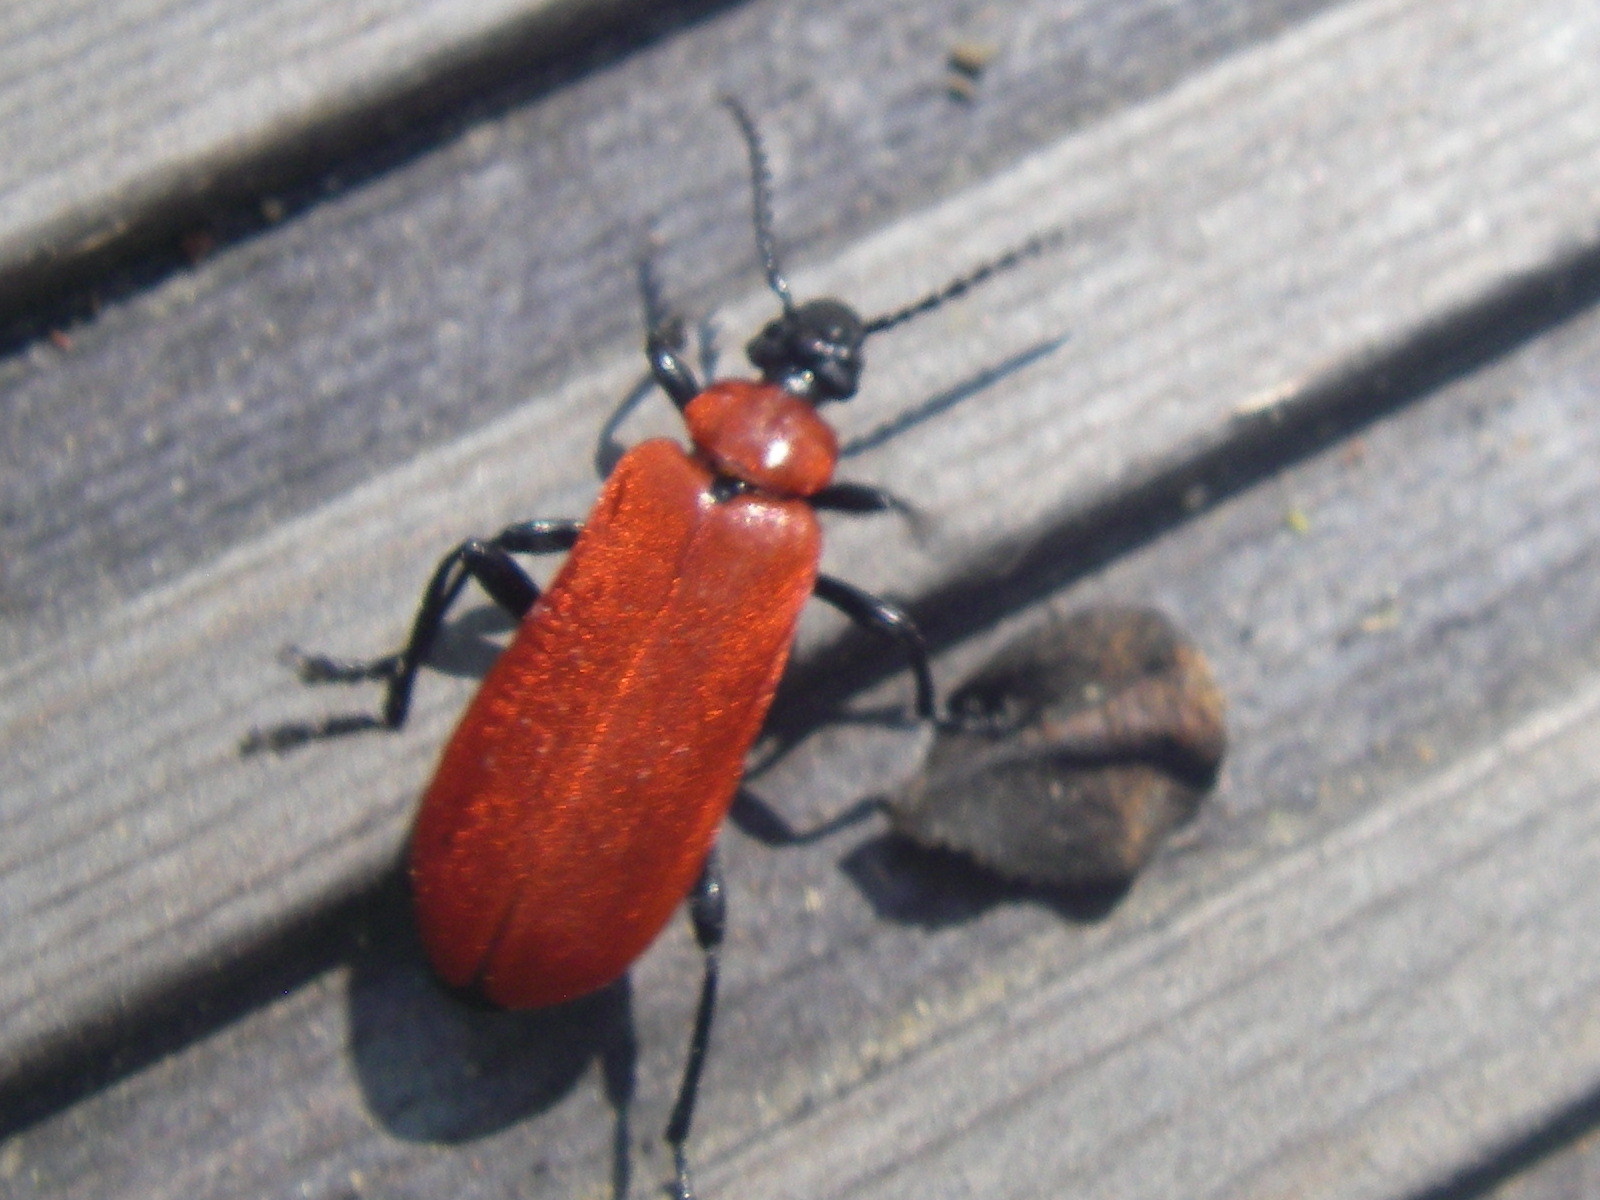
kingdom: Animalia
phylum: Arthropoda
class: Insecta
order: Coleoptera
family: Pyrochroidae
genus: Pyrochroa
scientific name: Pyrochroa coccinea
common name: Black-headed cardinal beetle
